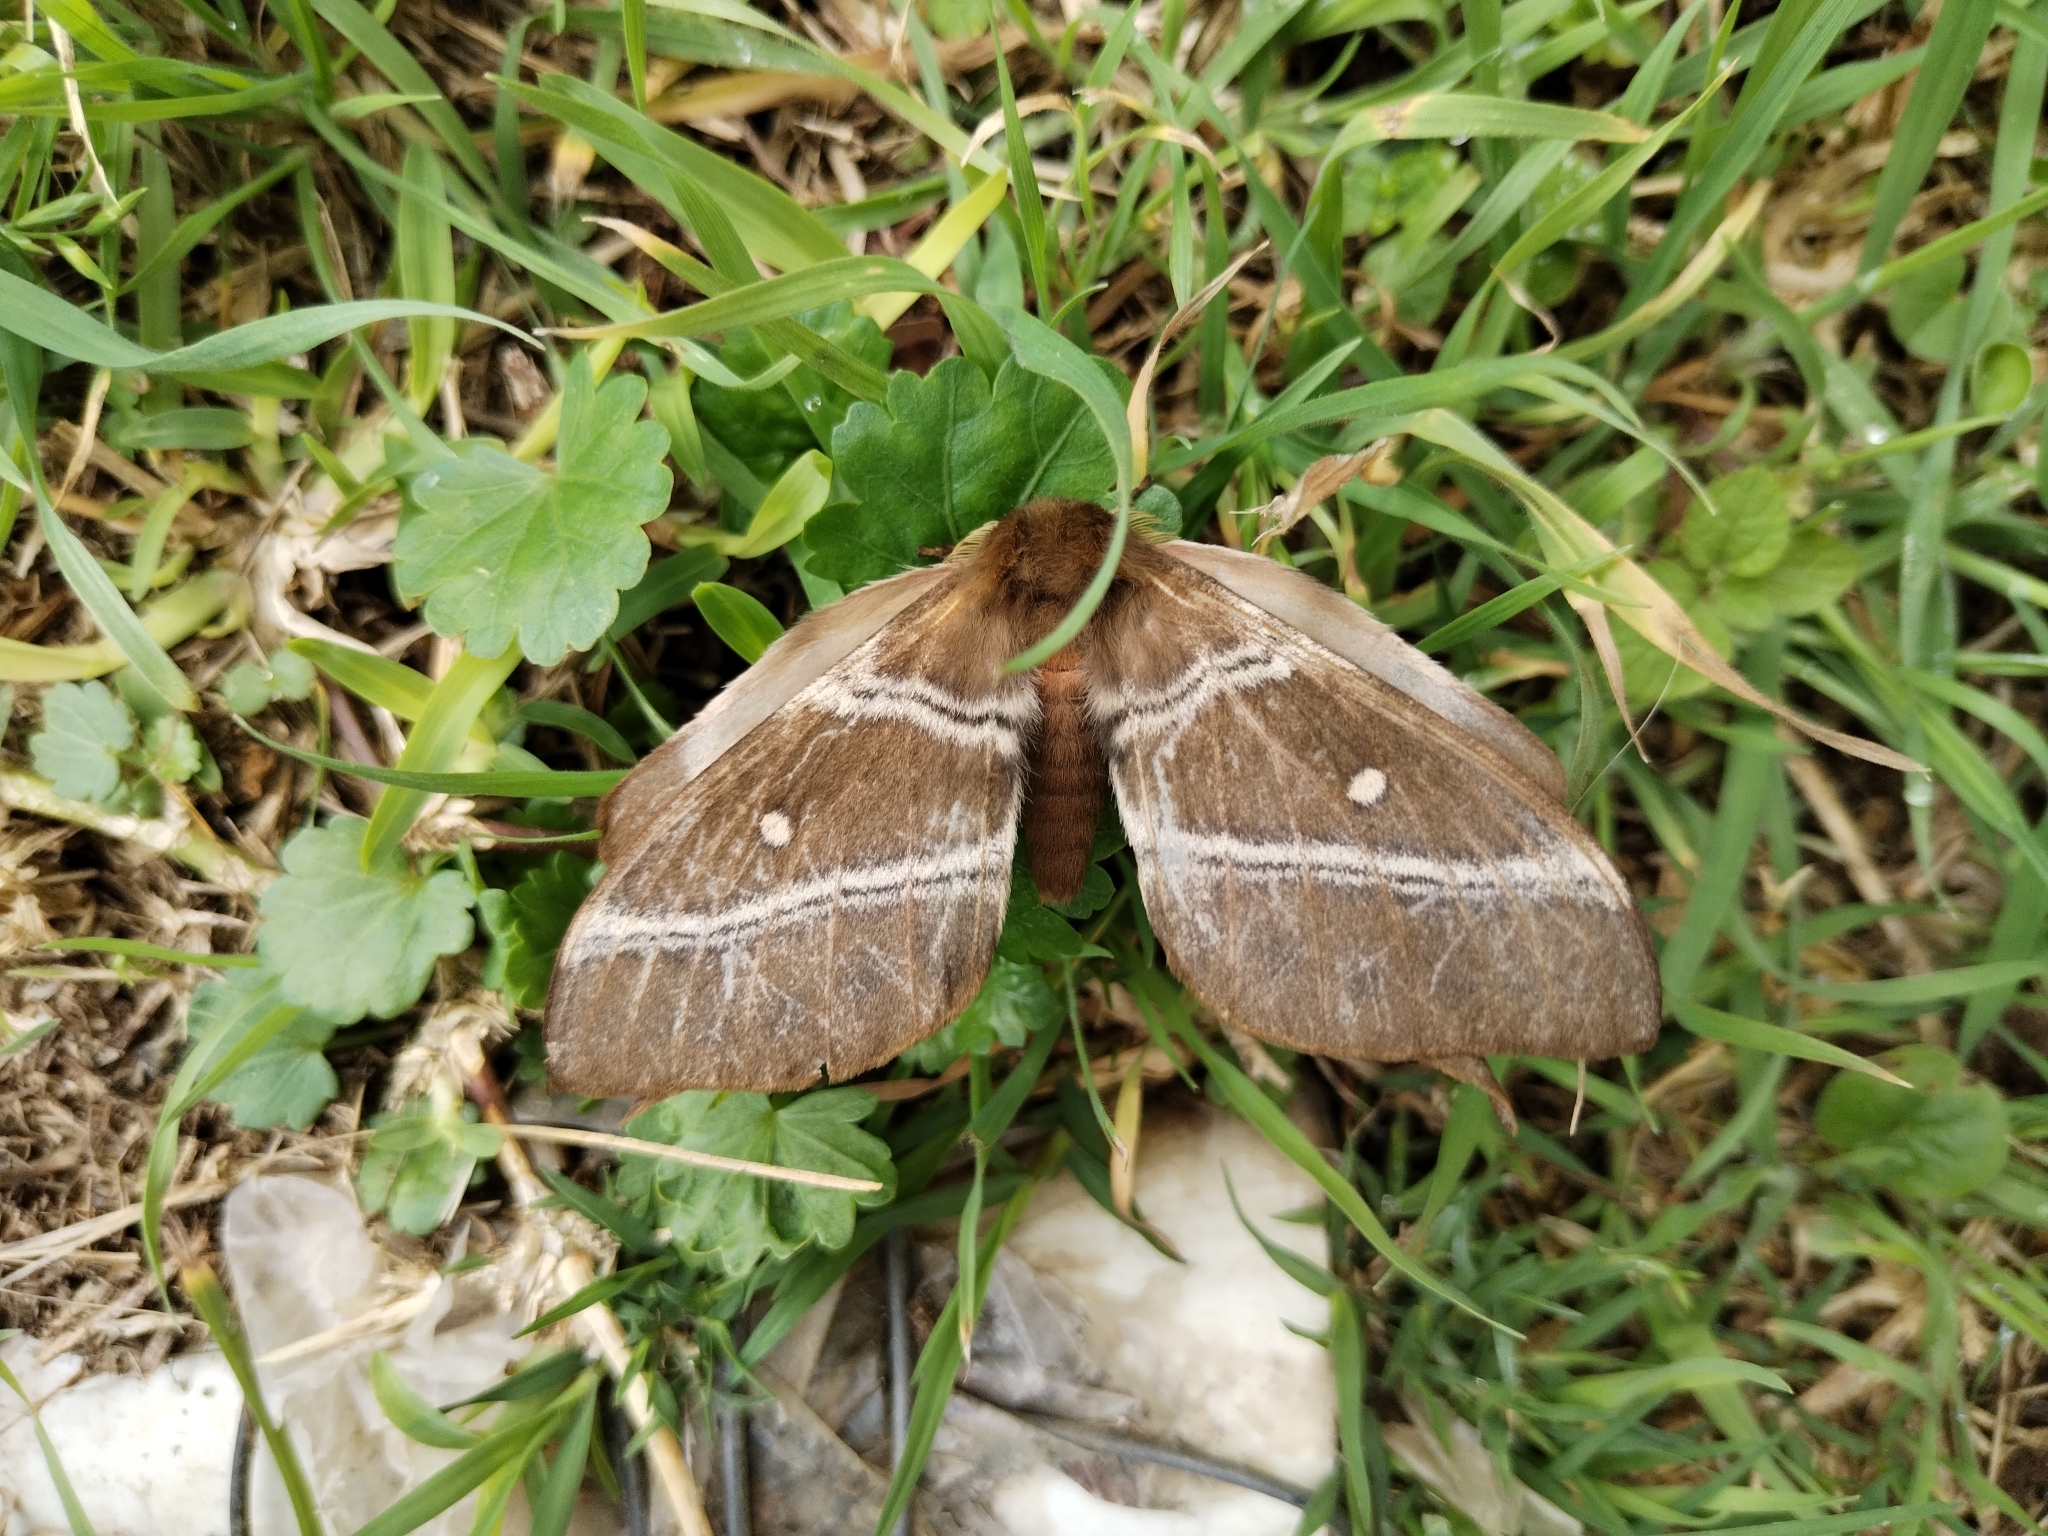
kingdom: Animalia
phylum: Arthropoda
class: Insecta
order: Lepidoptera
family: Saturniidae
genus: Urota
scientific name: Urota sinope
